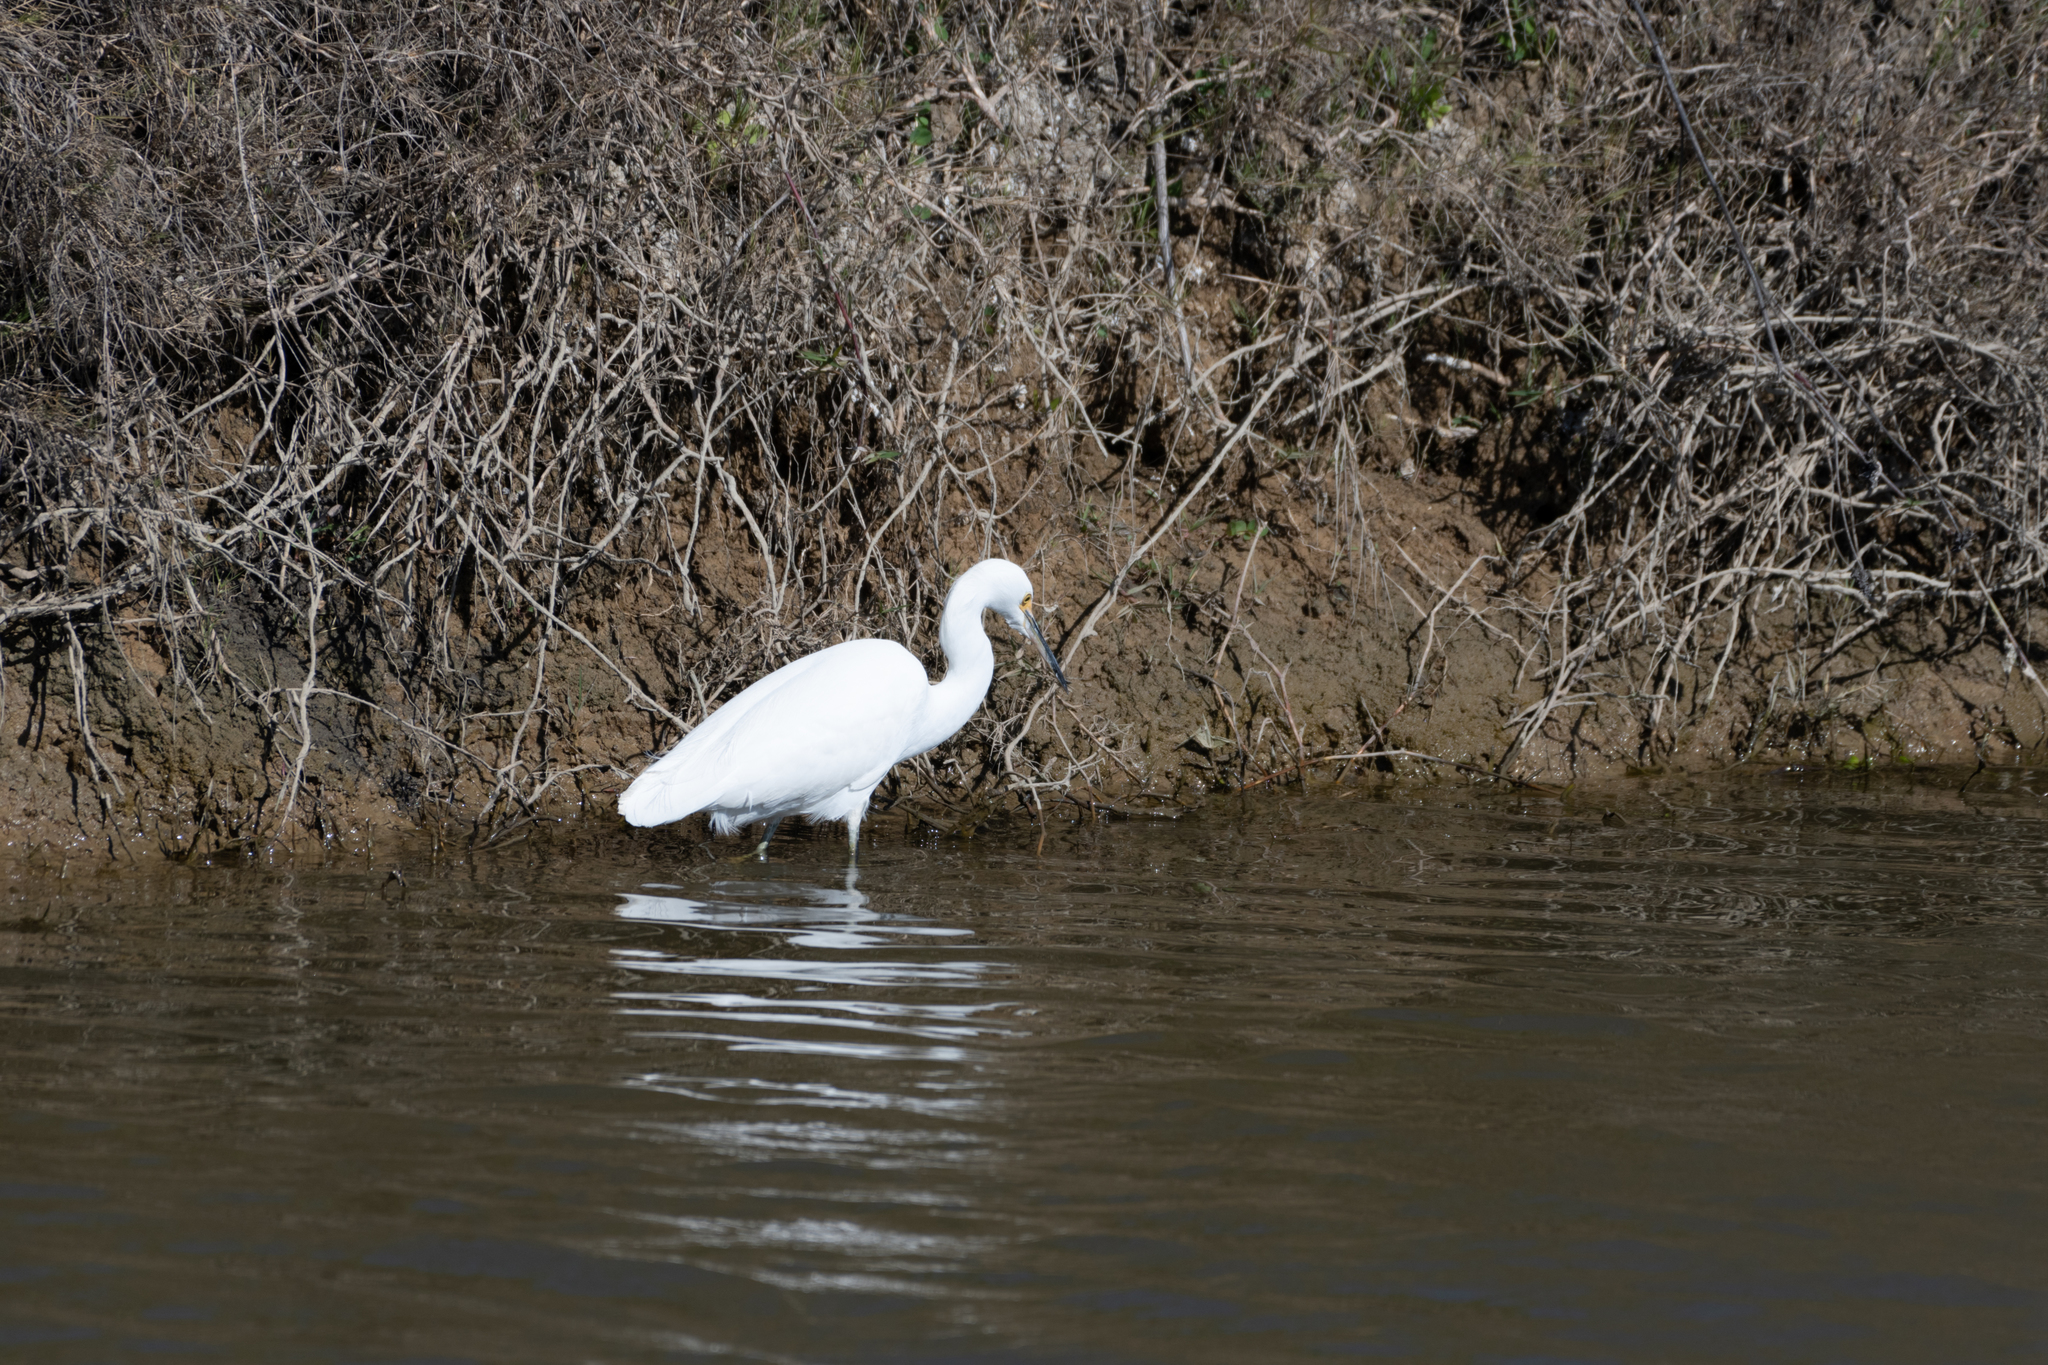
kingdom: Animalia
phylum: Chordata
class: Aves
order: Pelecaniformes
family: Ardeidae
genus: Egretta
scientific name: Egretta thula
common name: Snowy egret
